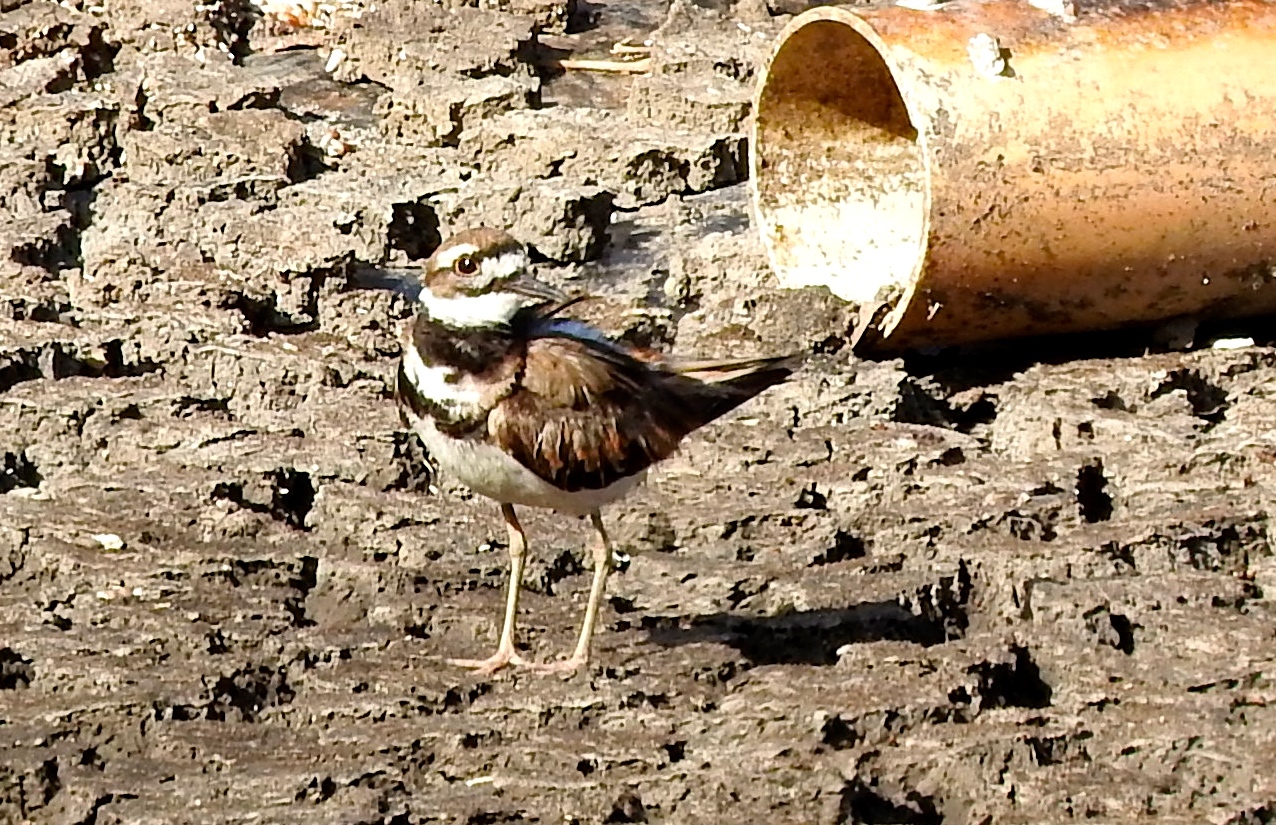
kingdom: Animalia
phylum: Chordata
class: Aves
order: Charadriiformes
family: Charadriidae
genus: Charadrius
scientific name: Charadrius vociferus
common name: Killdeer
